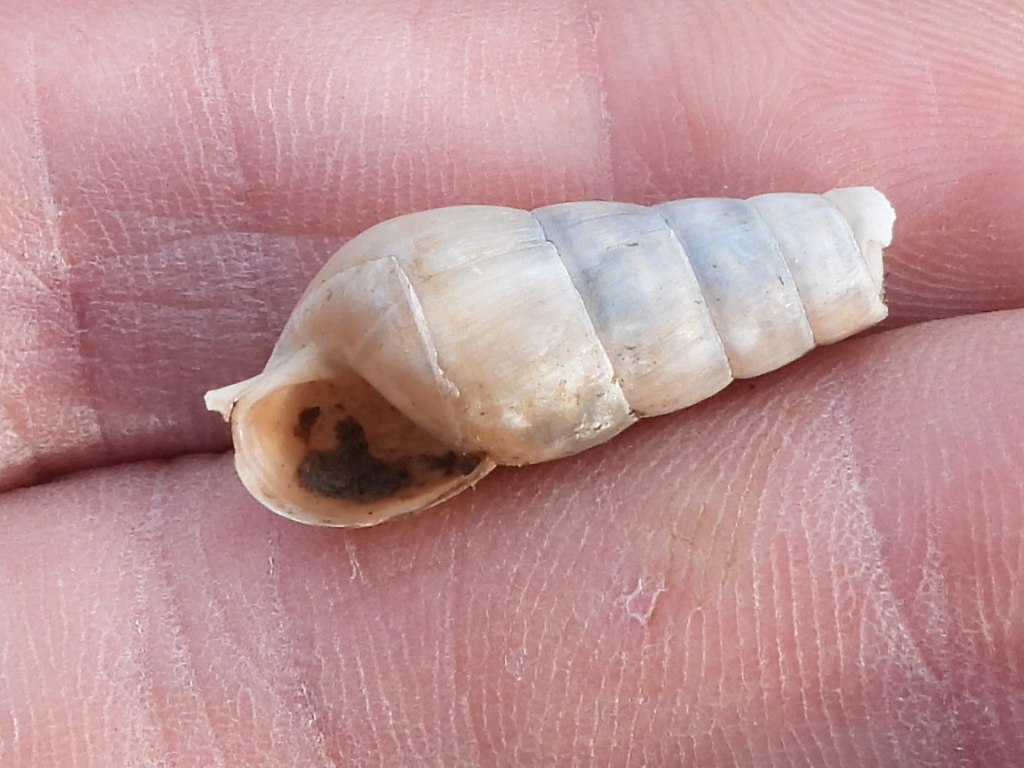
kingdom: Animalia
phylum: Mollusca
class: Gastropoda
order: Stylommatophora
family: Achatinidae
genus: Rumina
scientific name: Rumina decollata
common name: Decollate snail
